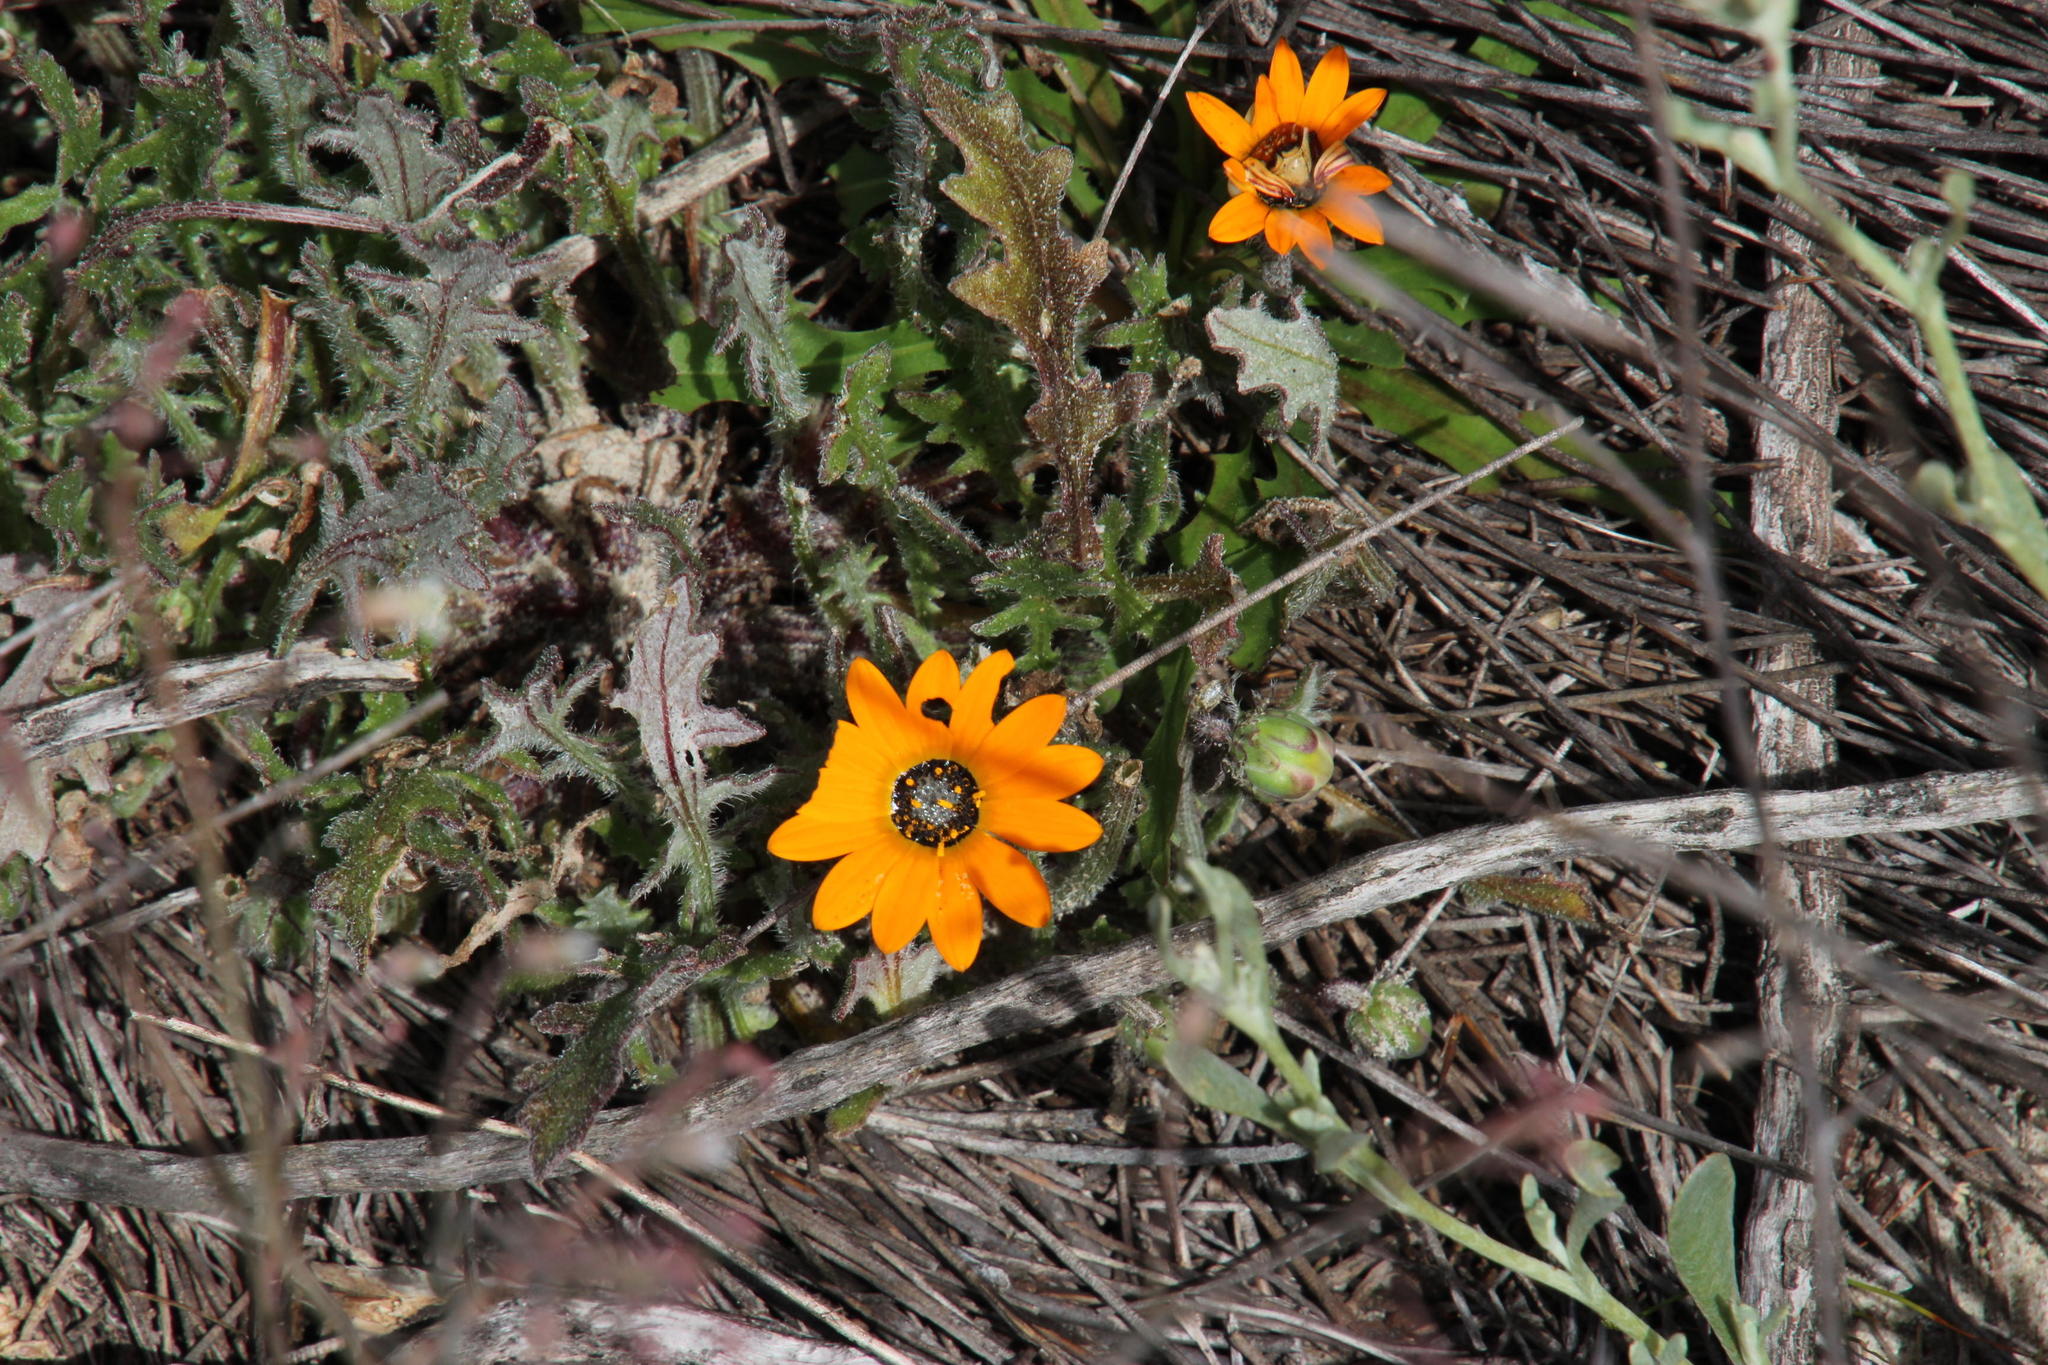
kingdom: Plantae
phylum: Tracheophyta
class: Magnoliopsida
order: Asterales
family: Asteraceae
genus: Arctotis
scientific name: Arctotis breviscapa
